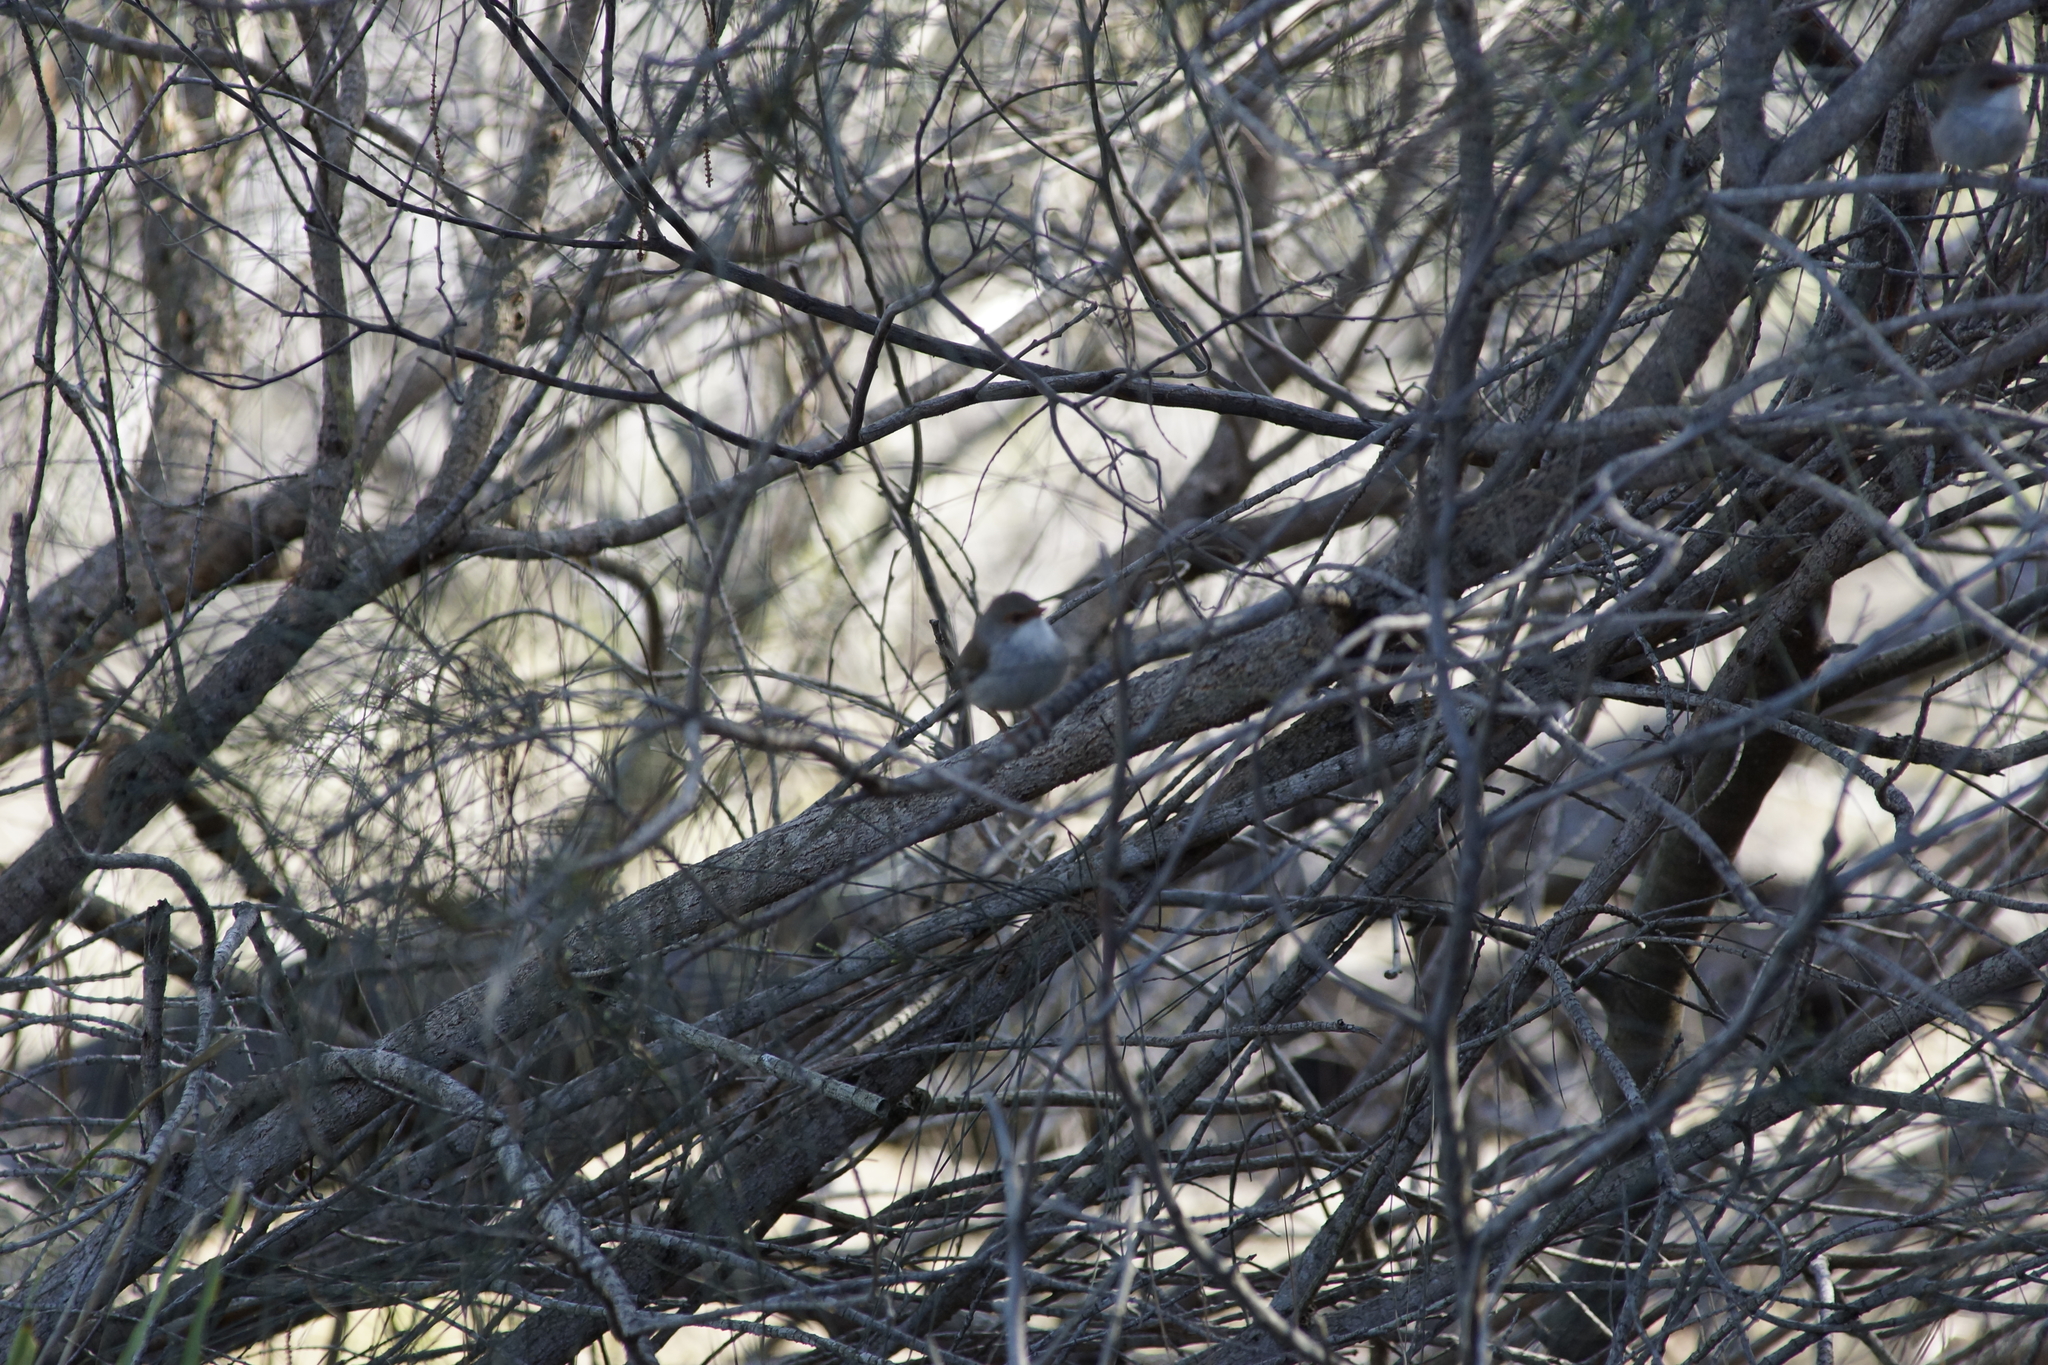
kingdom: Animalia
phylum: Chordata
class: Aves
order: Passeriformes
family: Maluridae
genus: Malurus
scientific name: Malurus cyaneus
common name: Superb fairywren
